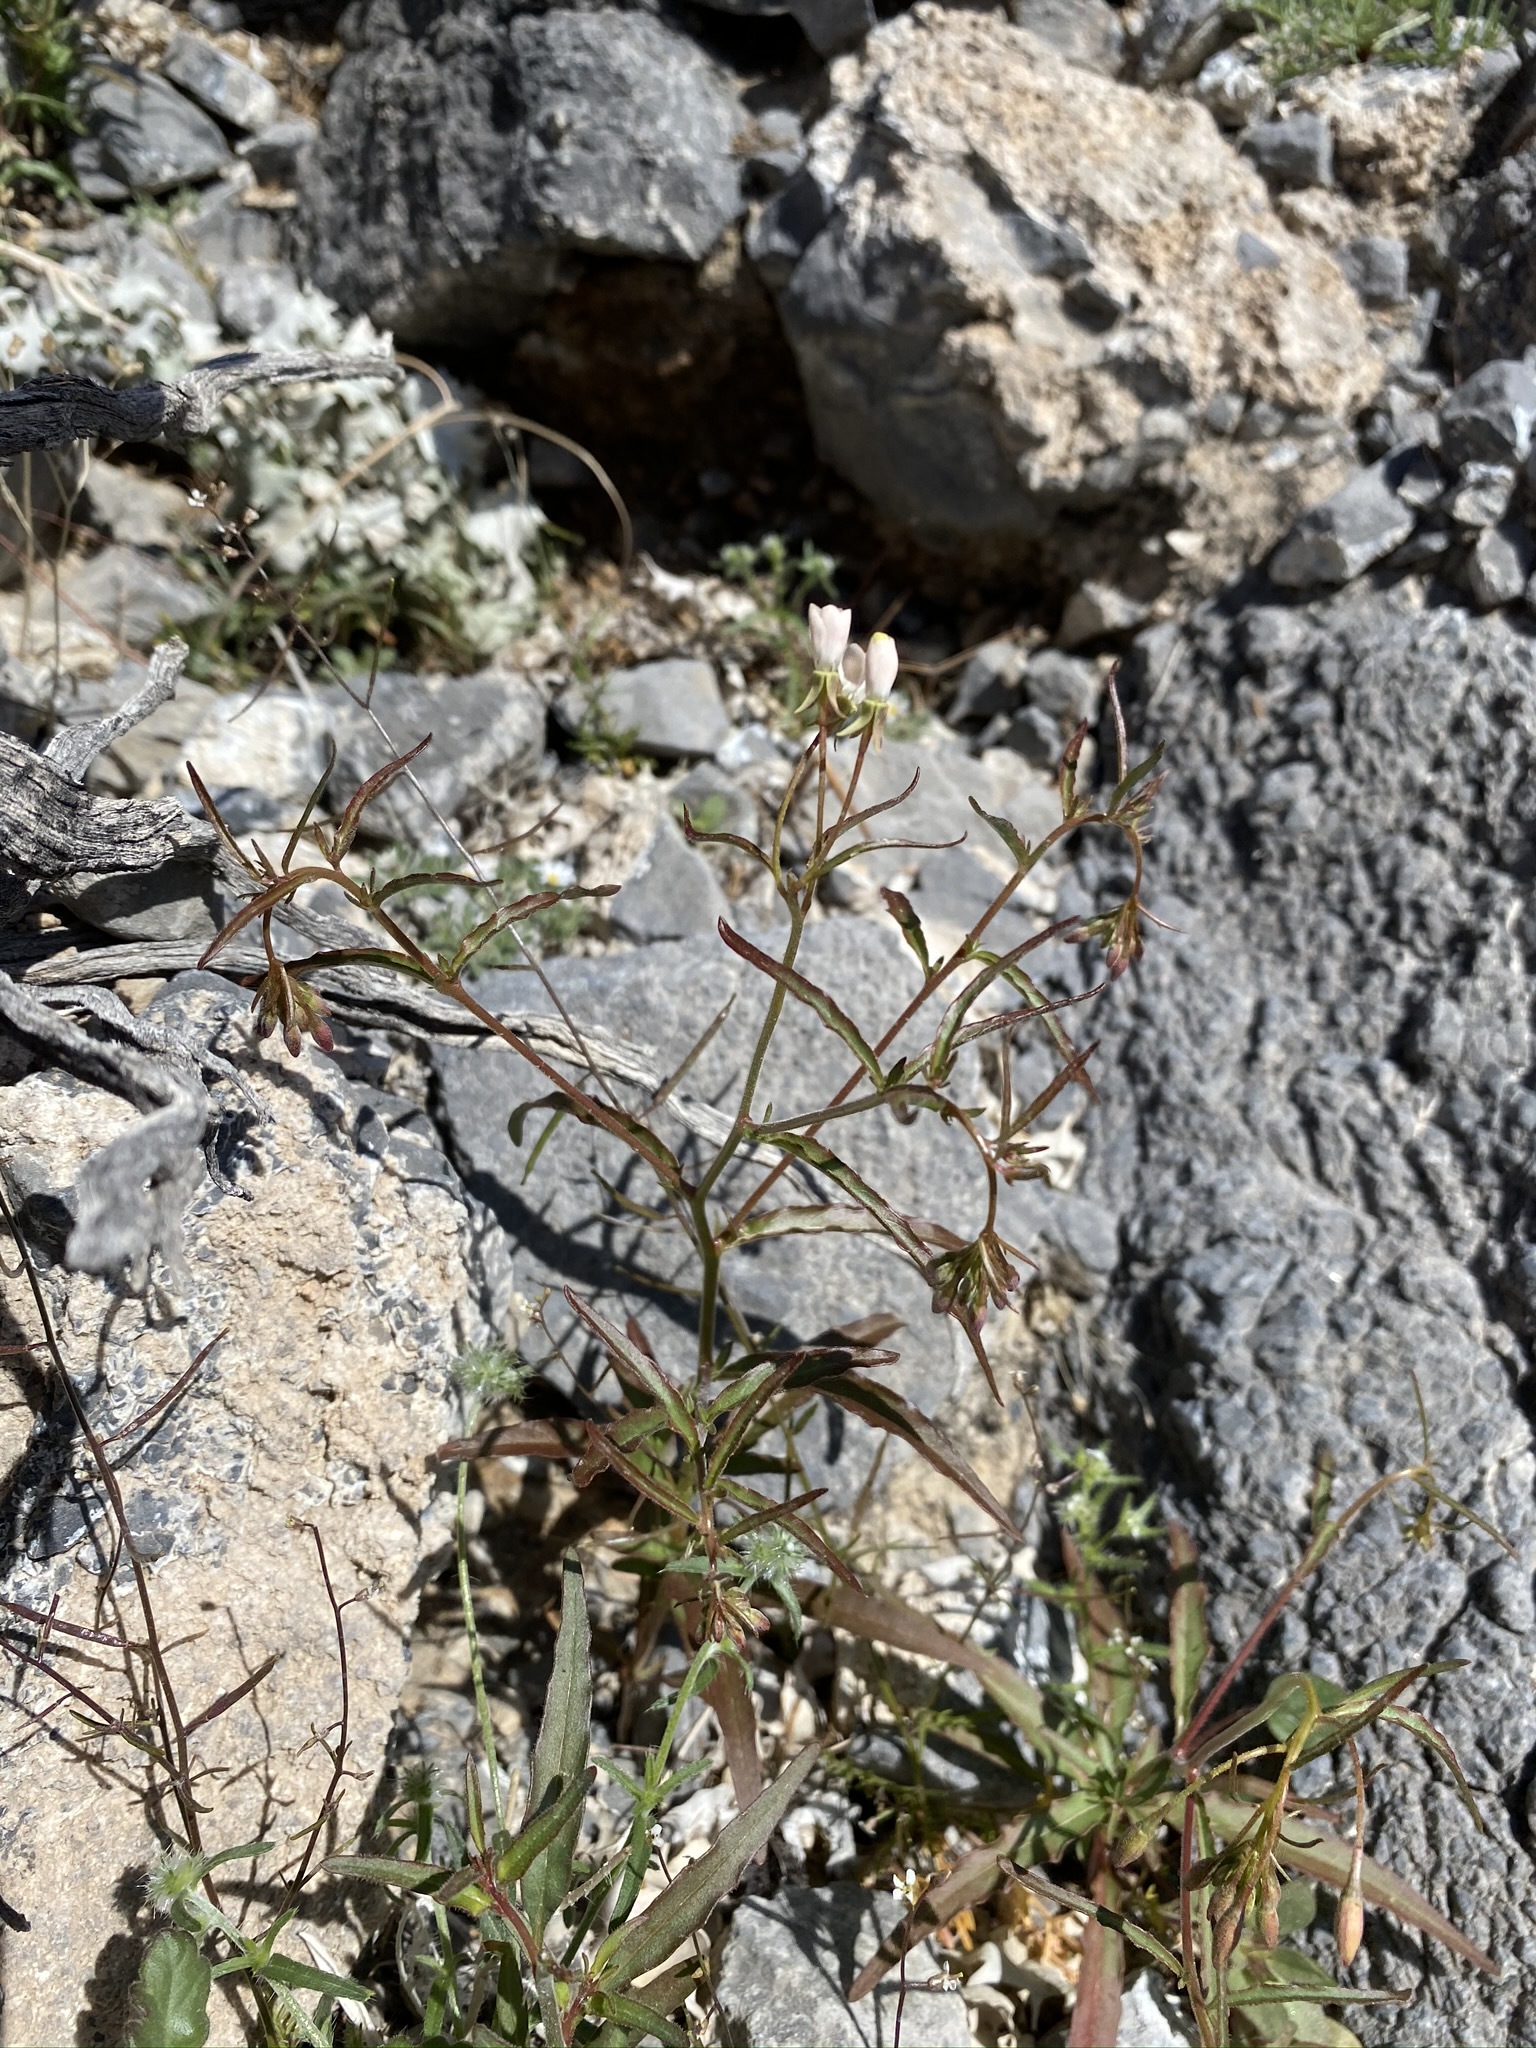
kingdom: Plantae
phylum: Tracheophyta
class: Magnoliopsida
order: Myrtales
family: Onagraceae
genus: Eremothera
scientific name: Eremothera refracta
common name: Narrowleaf suncup
